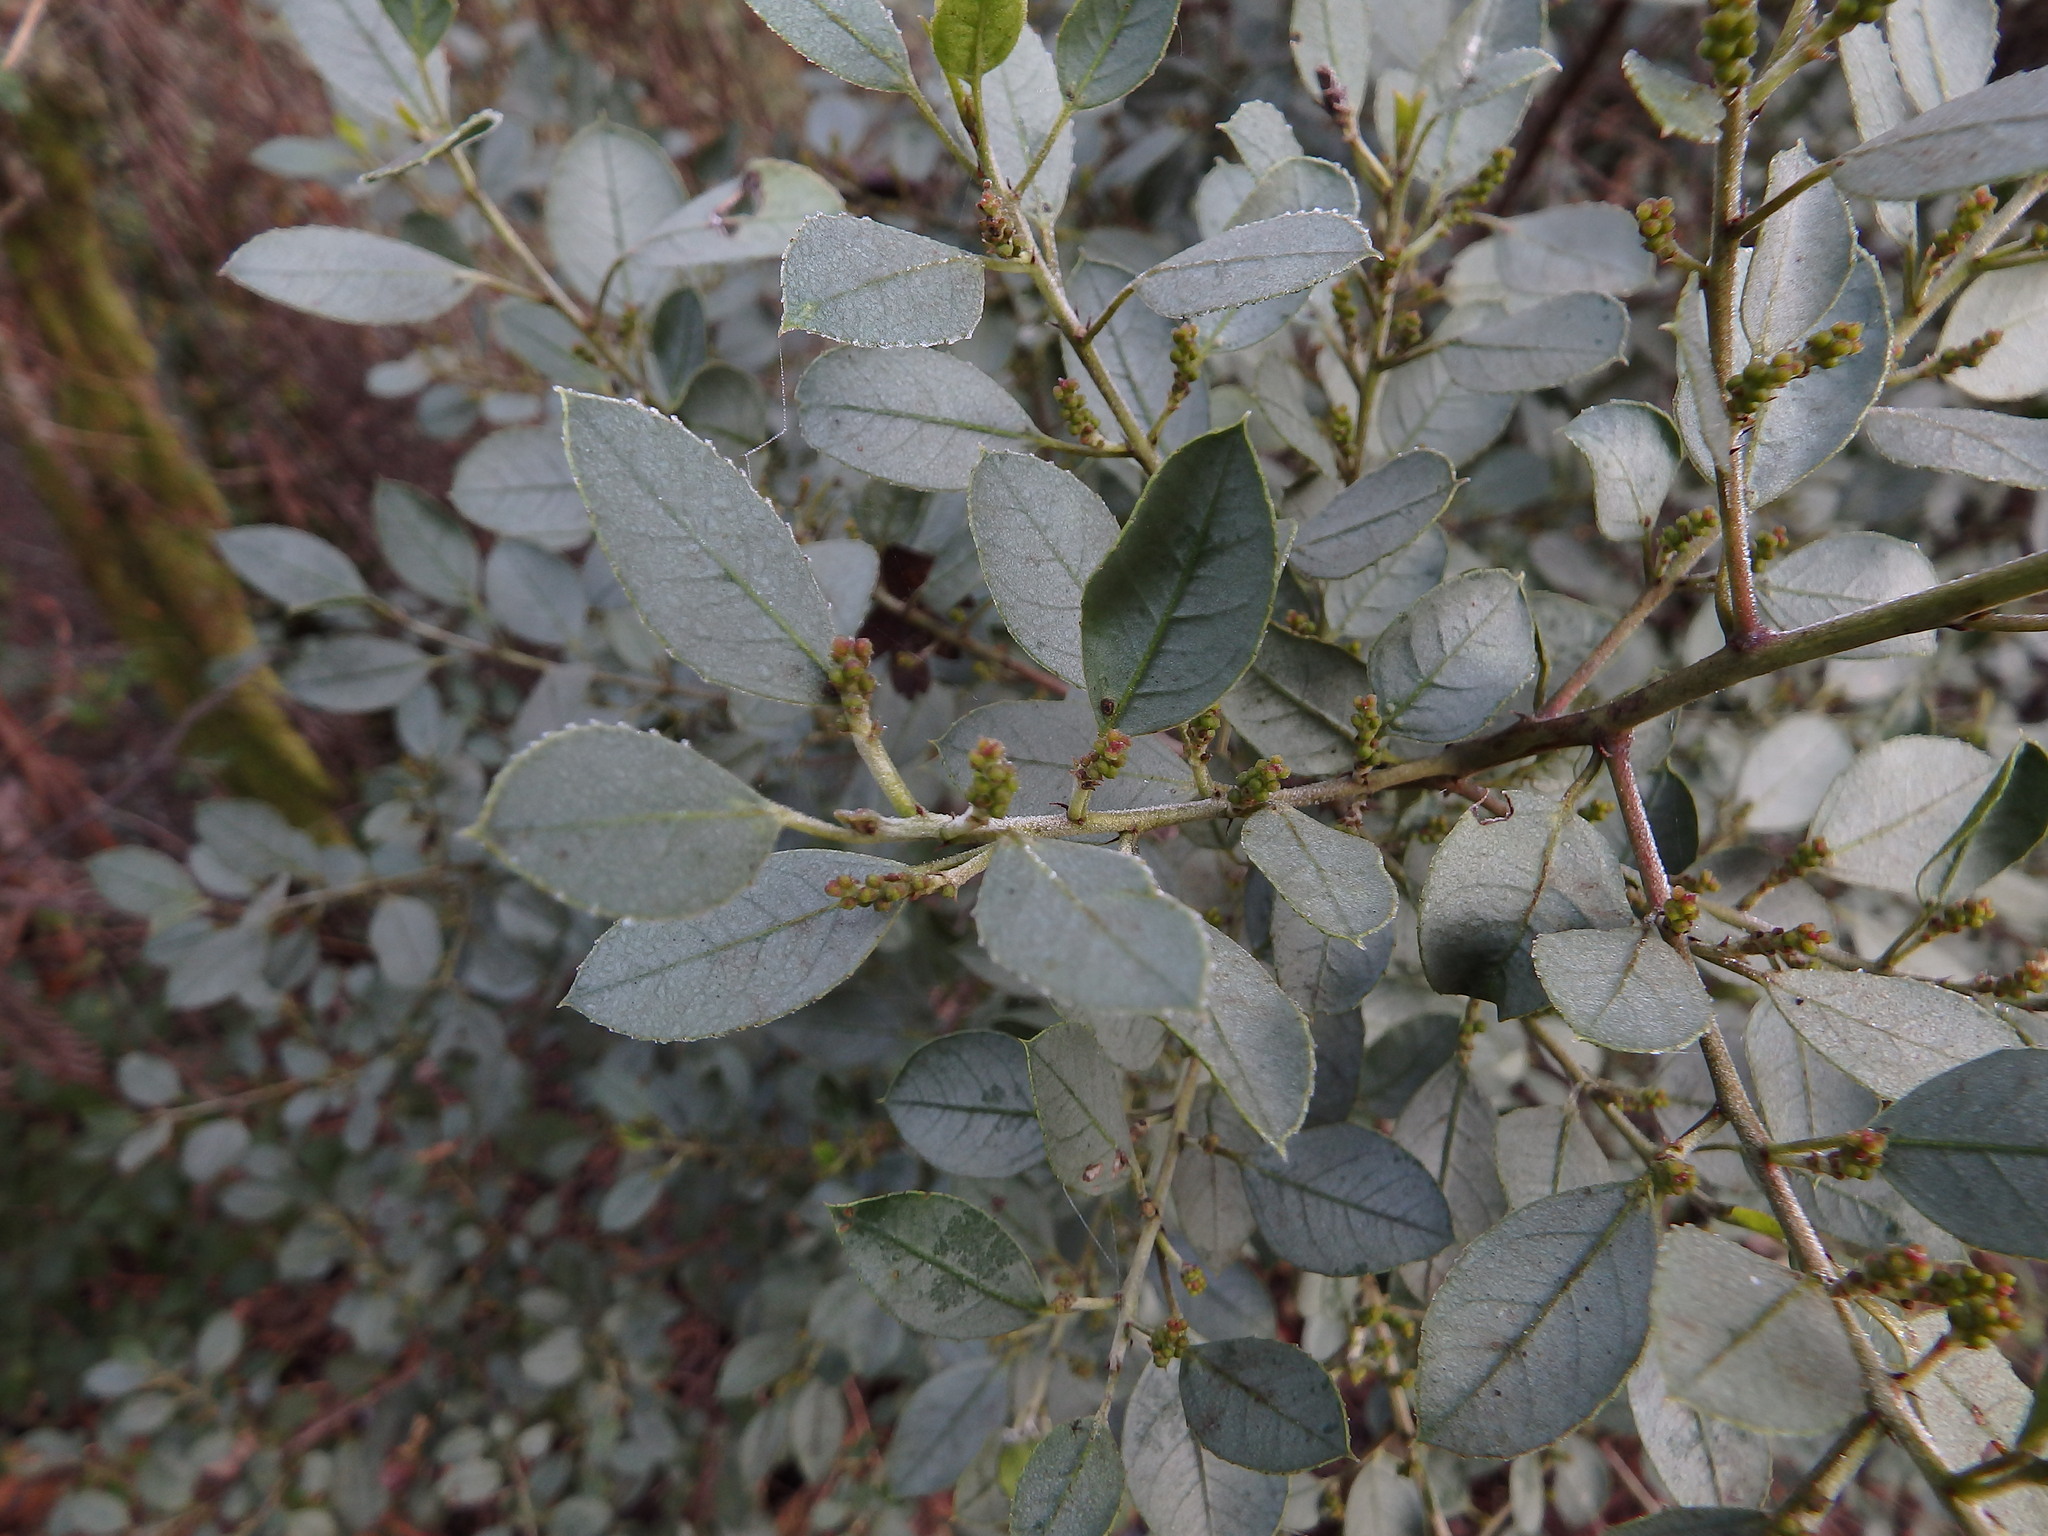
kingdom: Plantae
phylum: Tracheophyta
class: Magnoliopsida
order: Rosales
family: Rhamnaceae
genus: Rhamnus
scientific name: Rhamnus alaternus
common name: Mediterranean buckthorn
